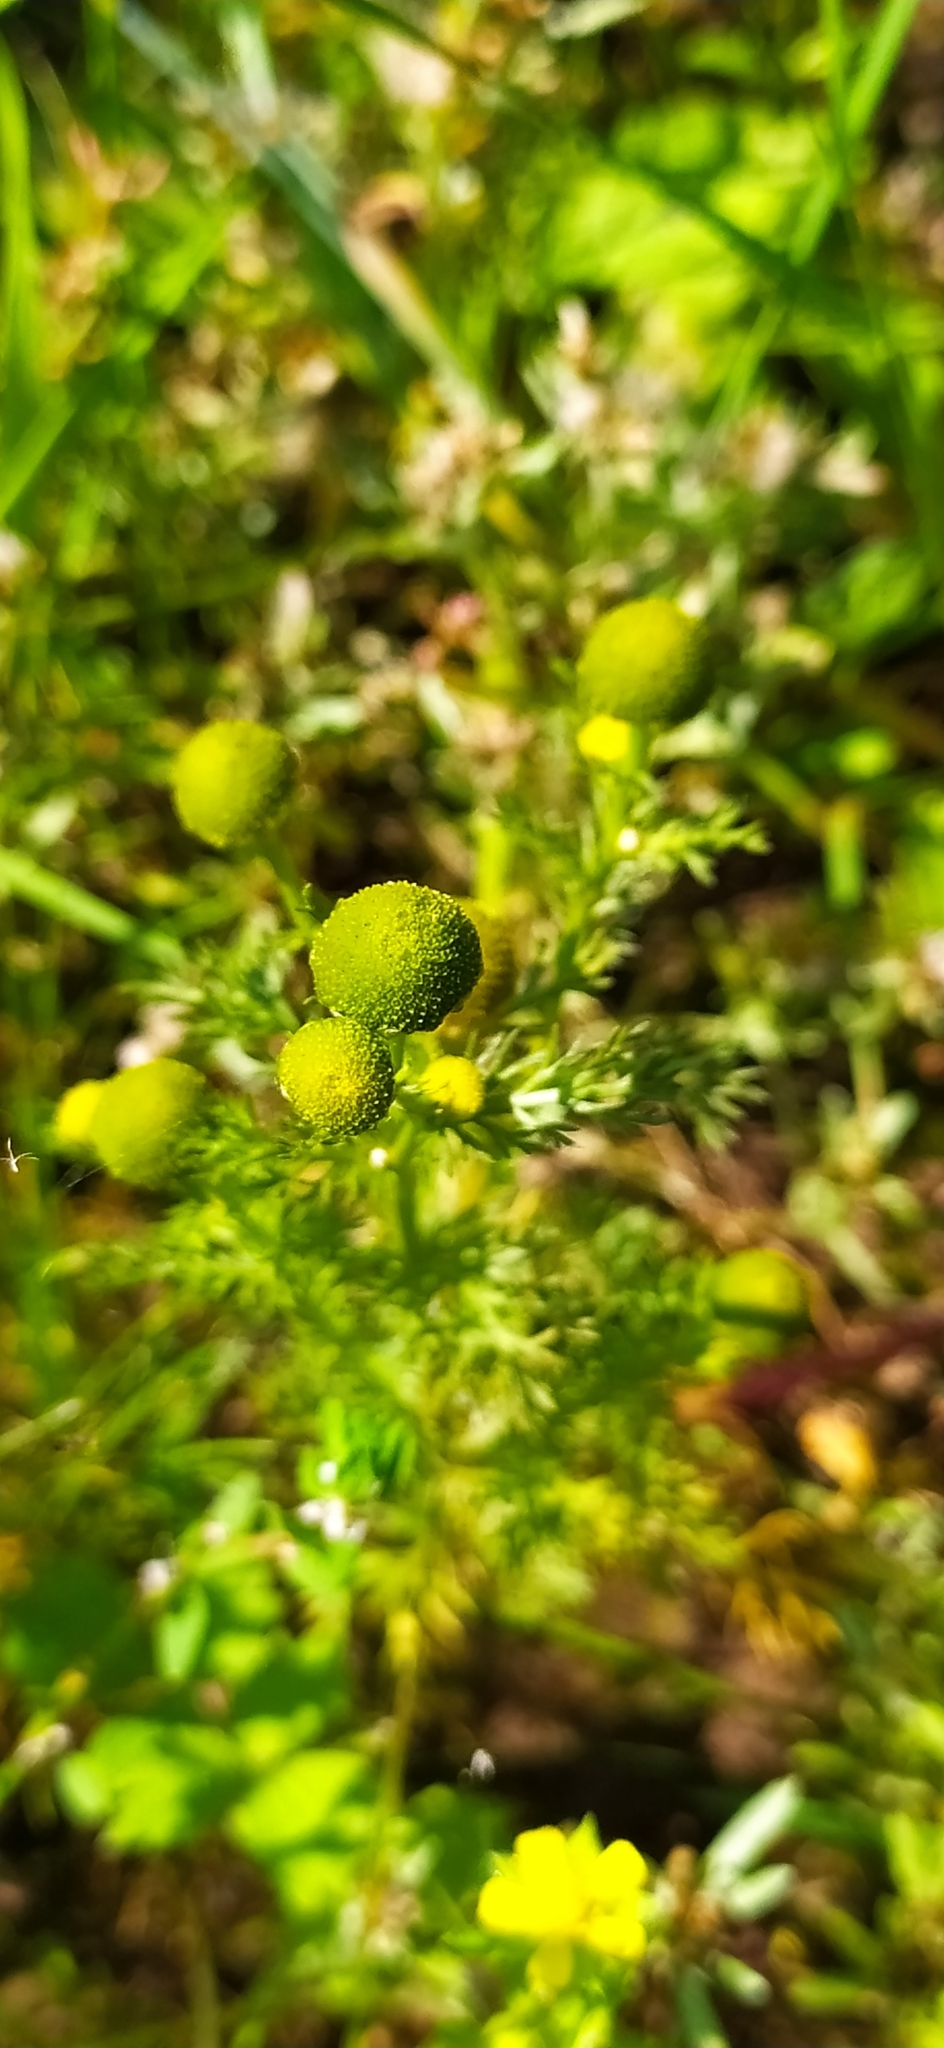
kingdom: Plantae
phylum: Tracheophyta
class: Magnoliopsida
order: Asterales
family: Asteraceae
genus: Matricaria
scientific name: Matricaria discoidea
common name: Disc mayweed
